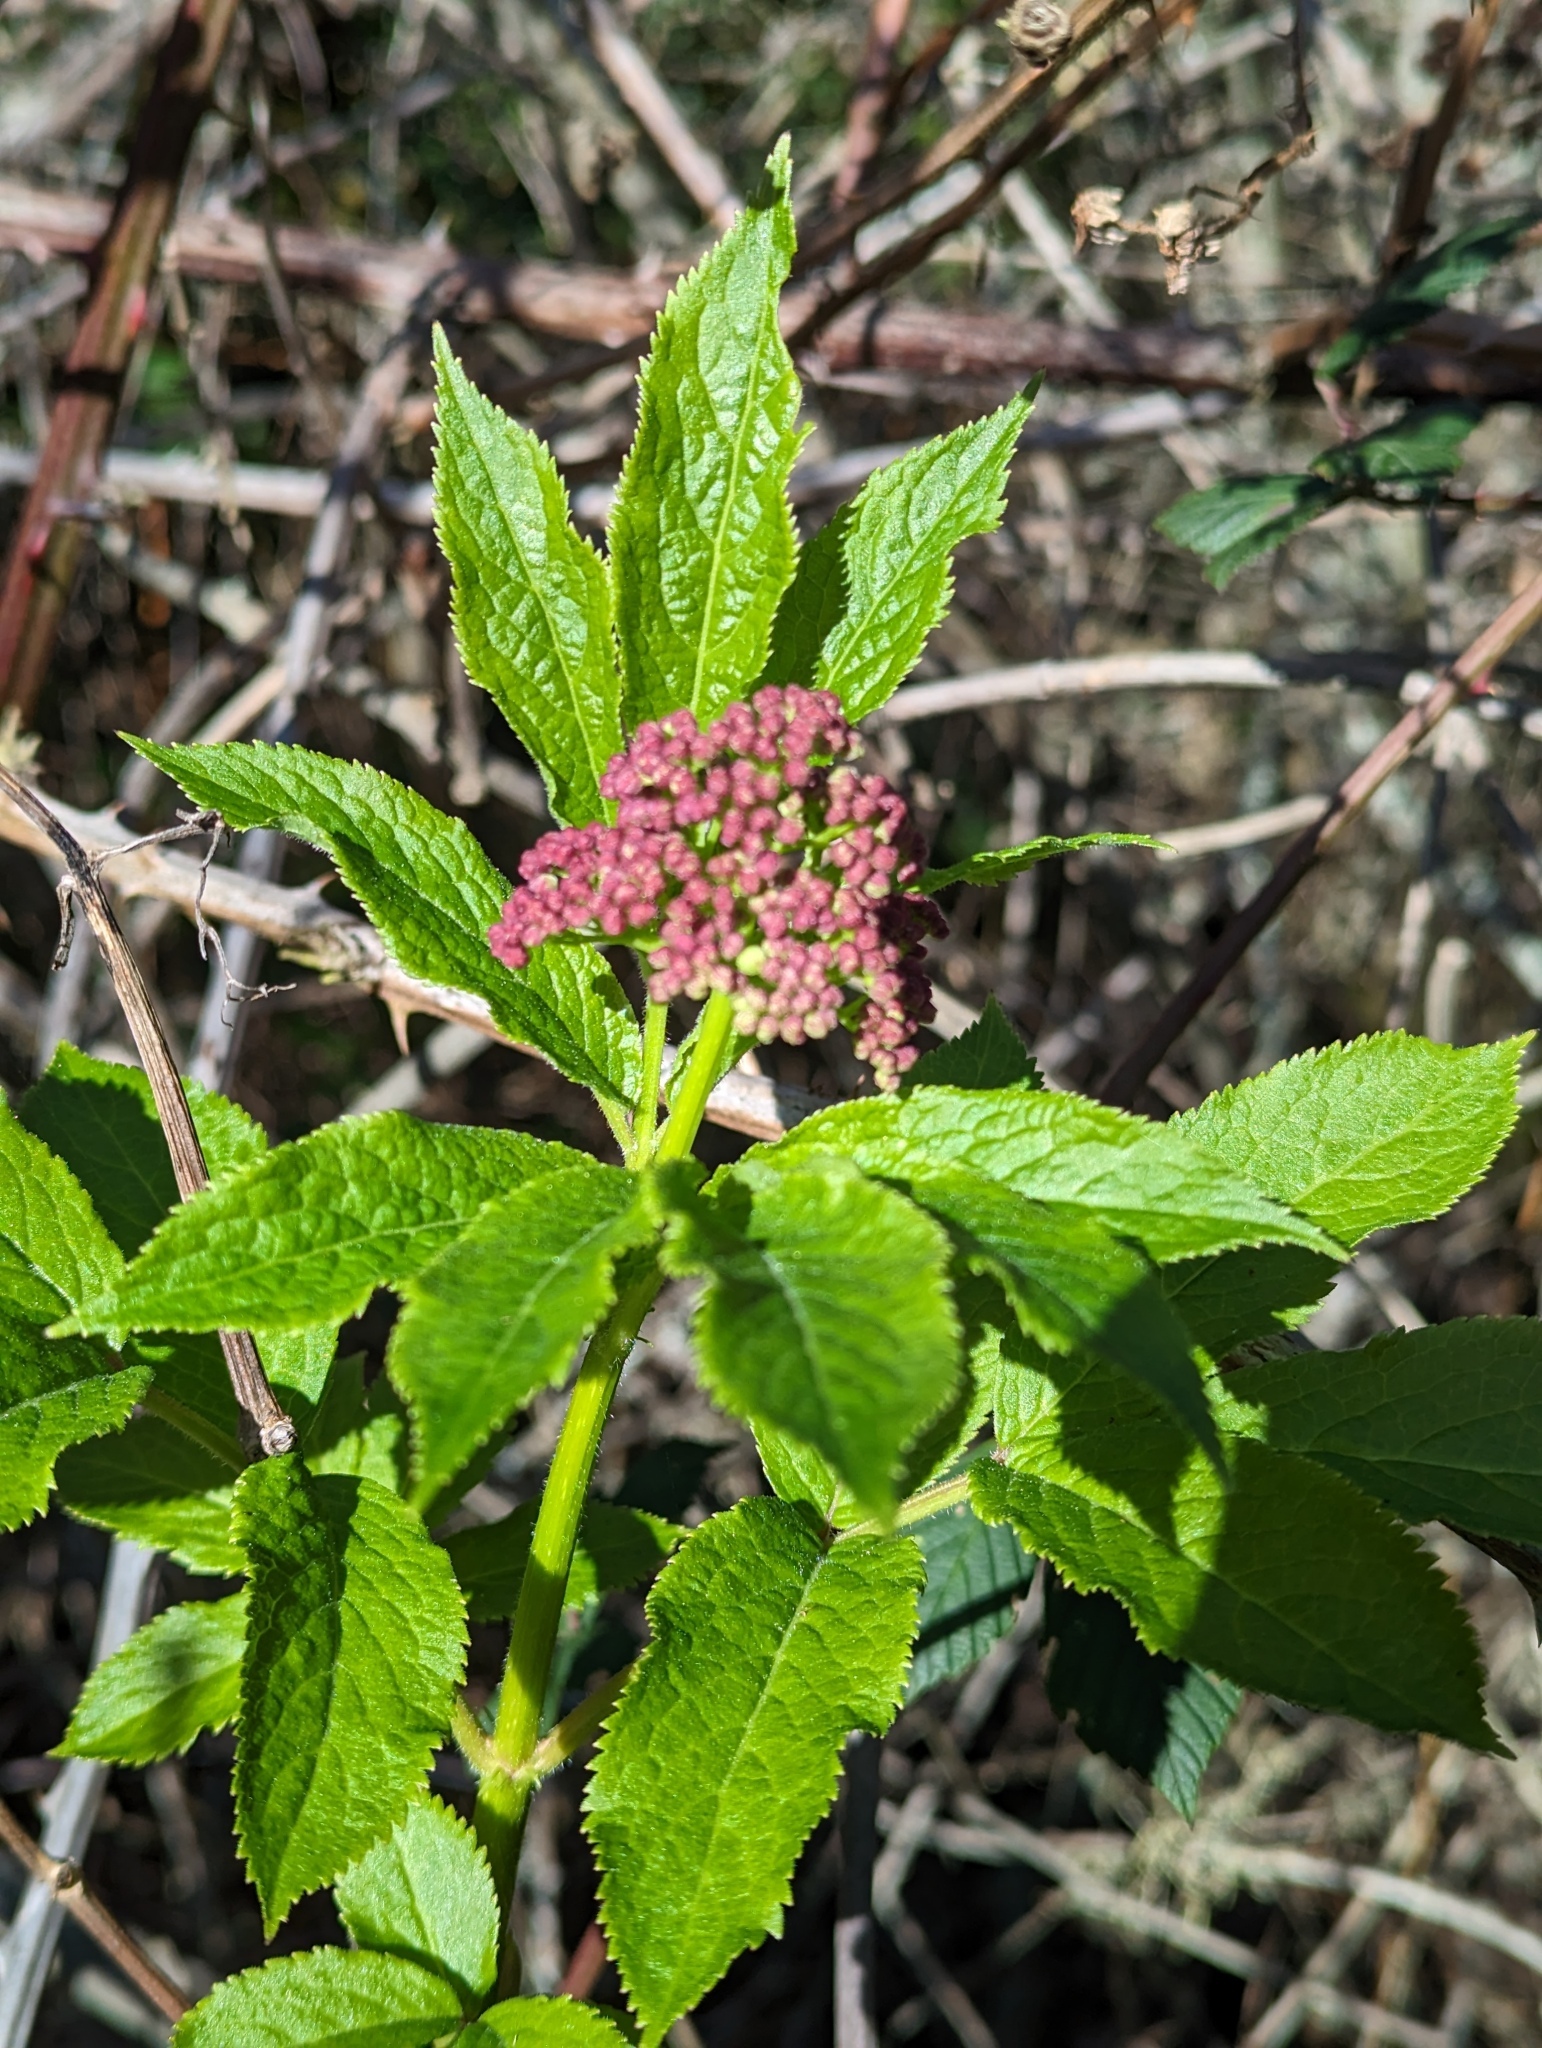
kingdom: Plantae
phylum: Tracheophyta
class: Magnoliopsida
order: Dipsacales
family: Viburnaceae
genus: Sambucus
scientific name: Sambucus racemosa
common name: Red-berried elder
